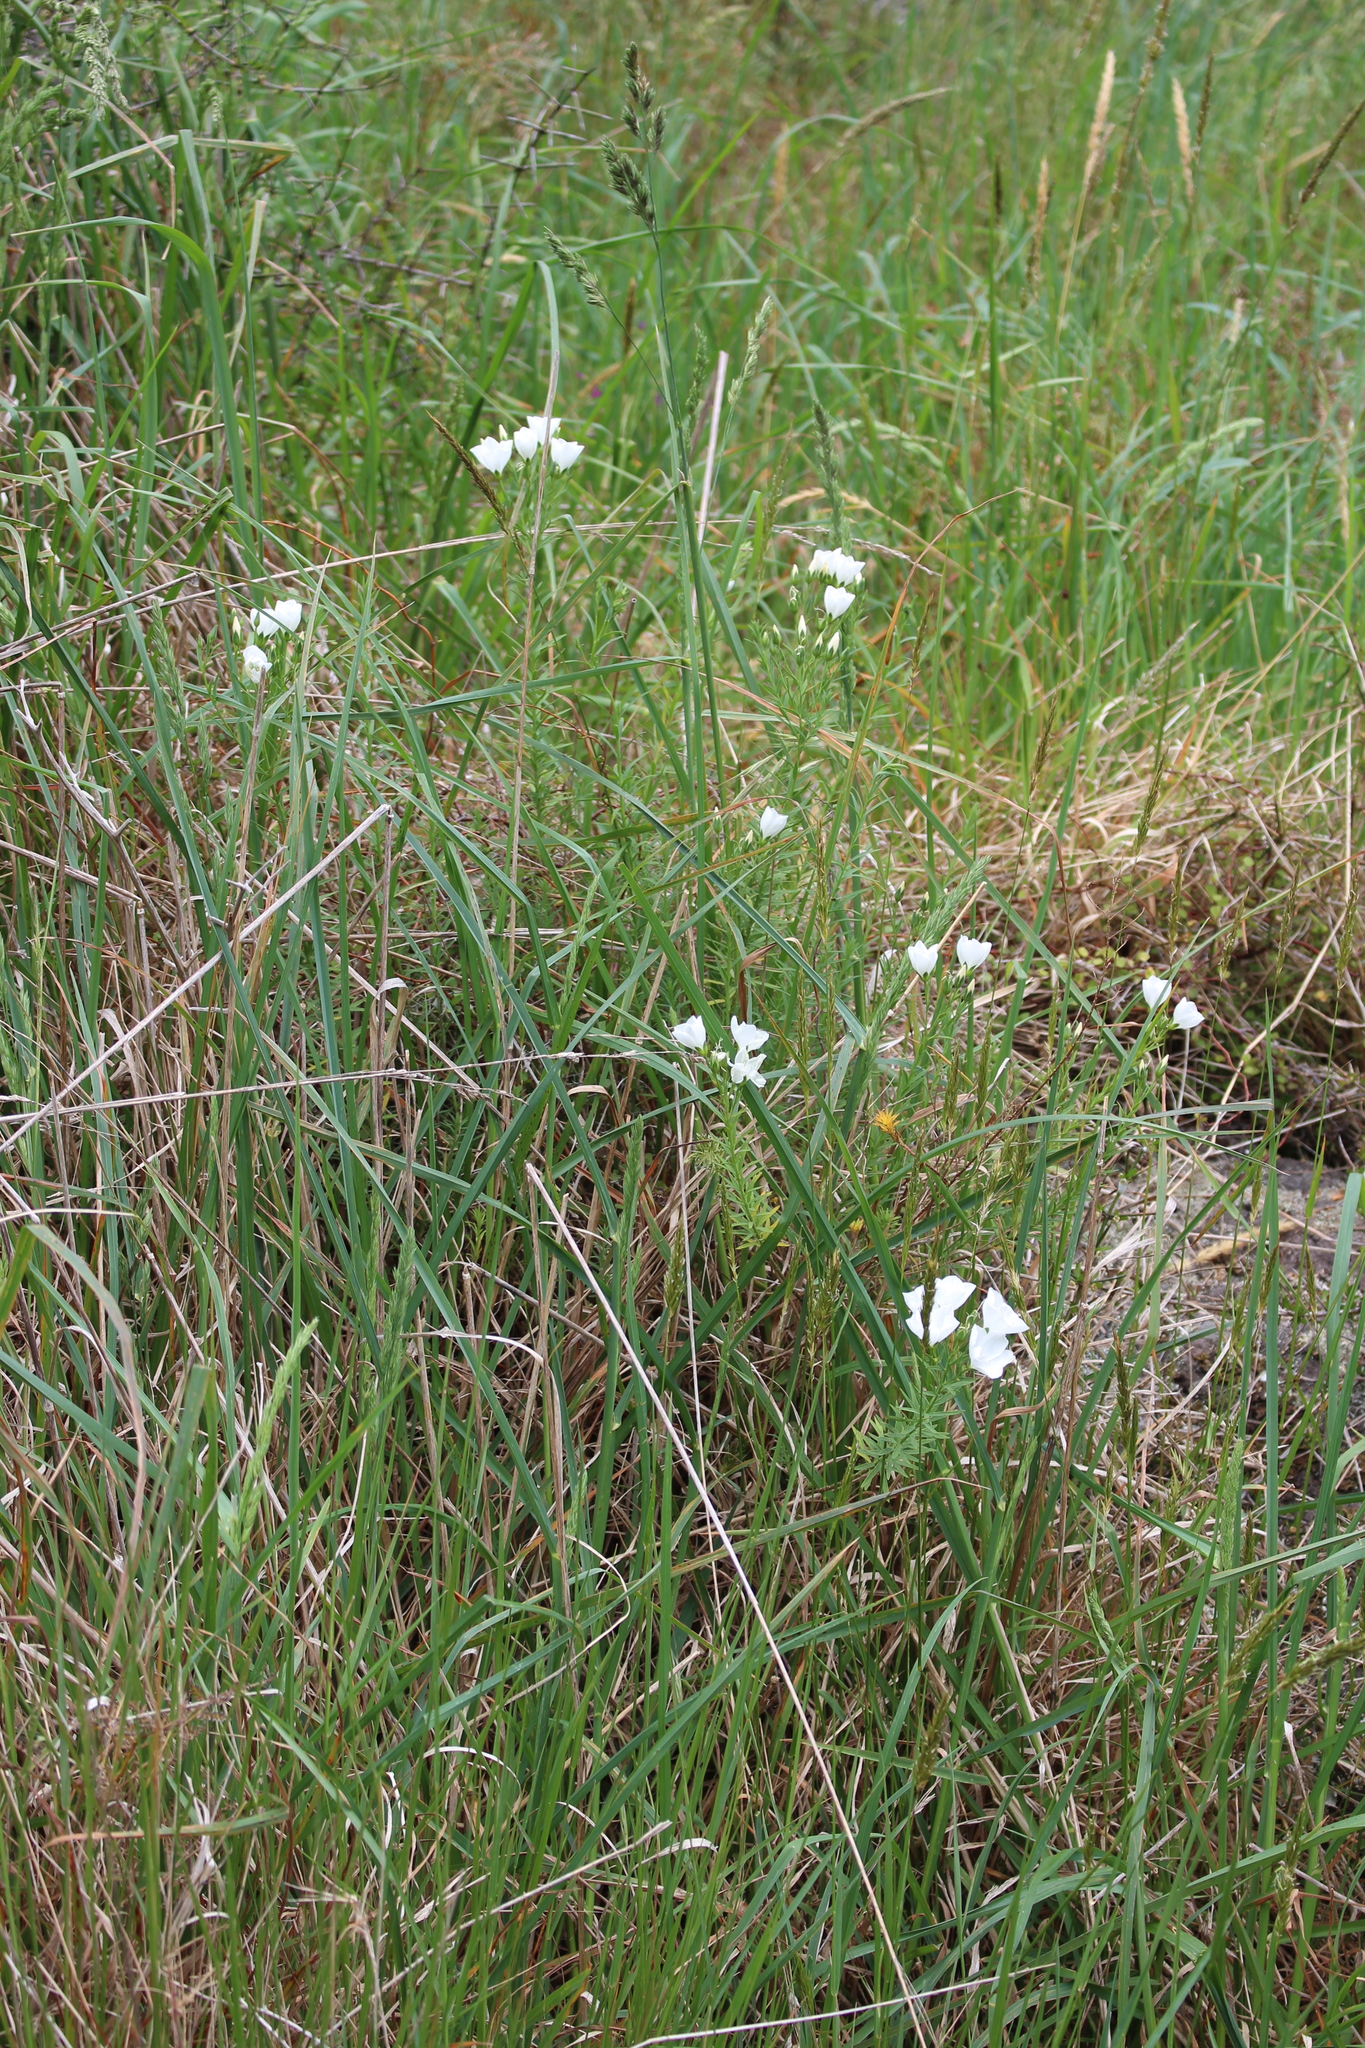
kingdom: Plantae
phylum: Tracheophyta
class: Magnoliopsida
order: Malpighiales
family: Linaceae
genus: Linum
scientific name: Linum monogynum
